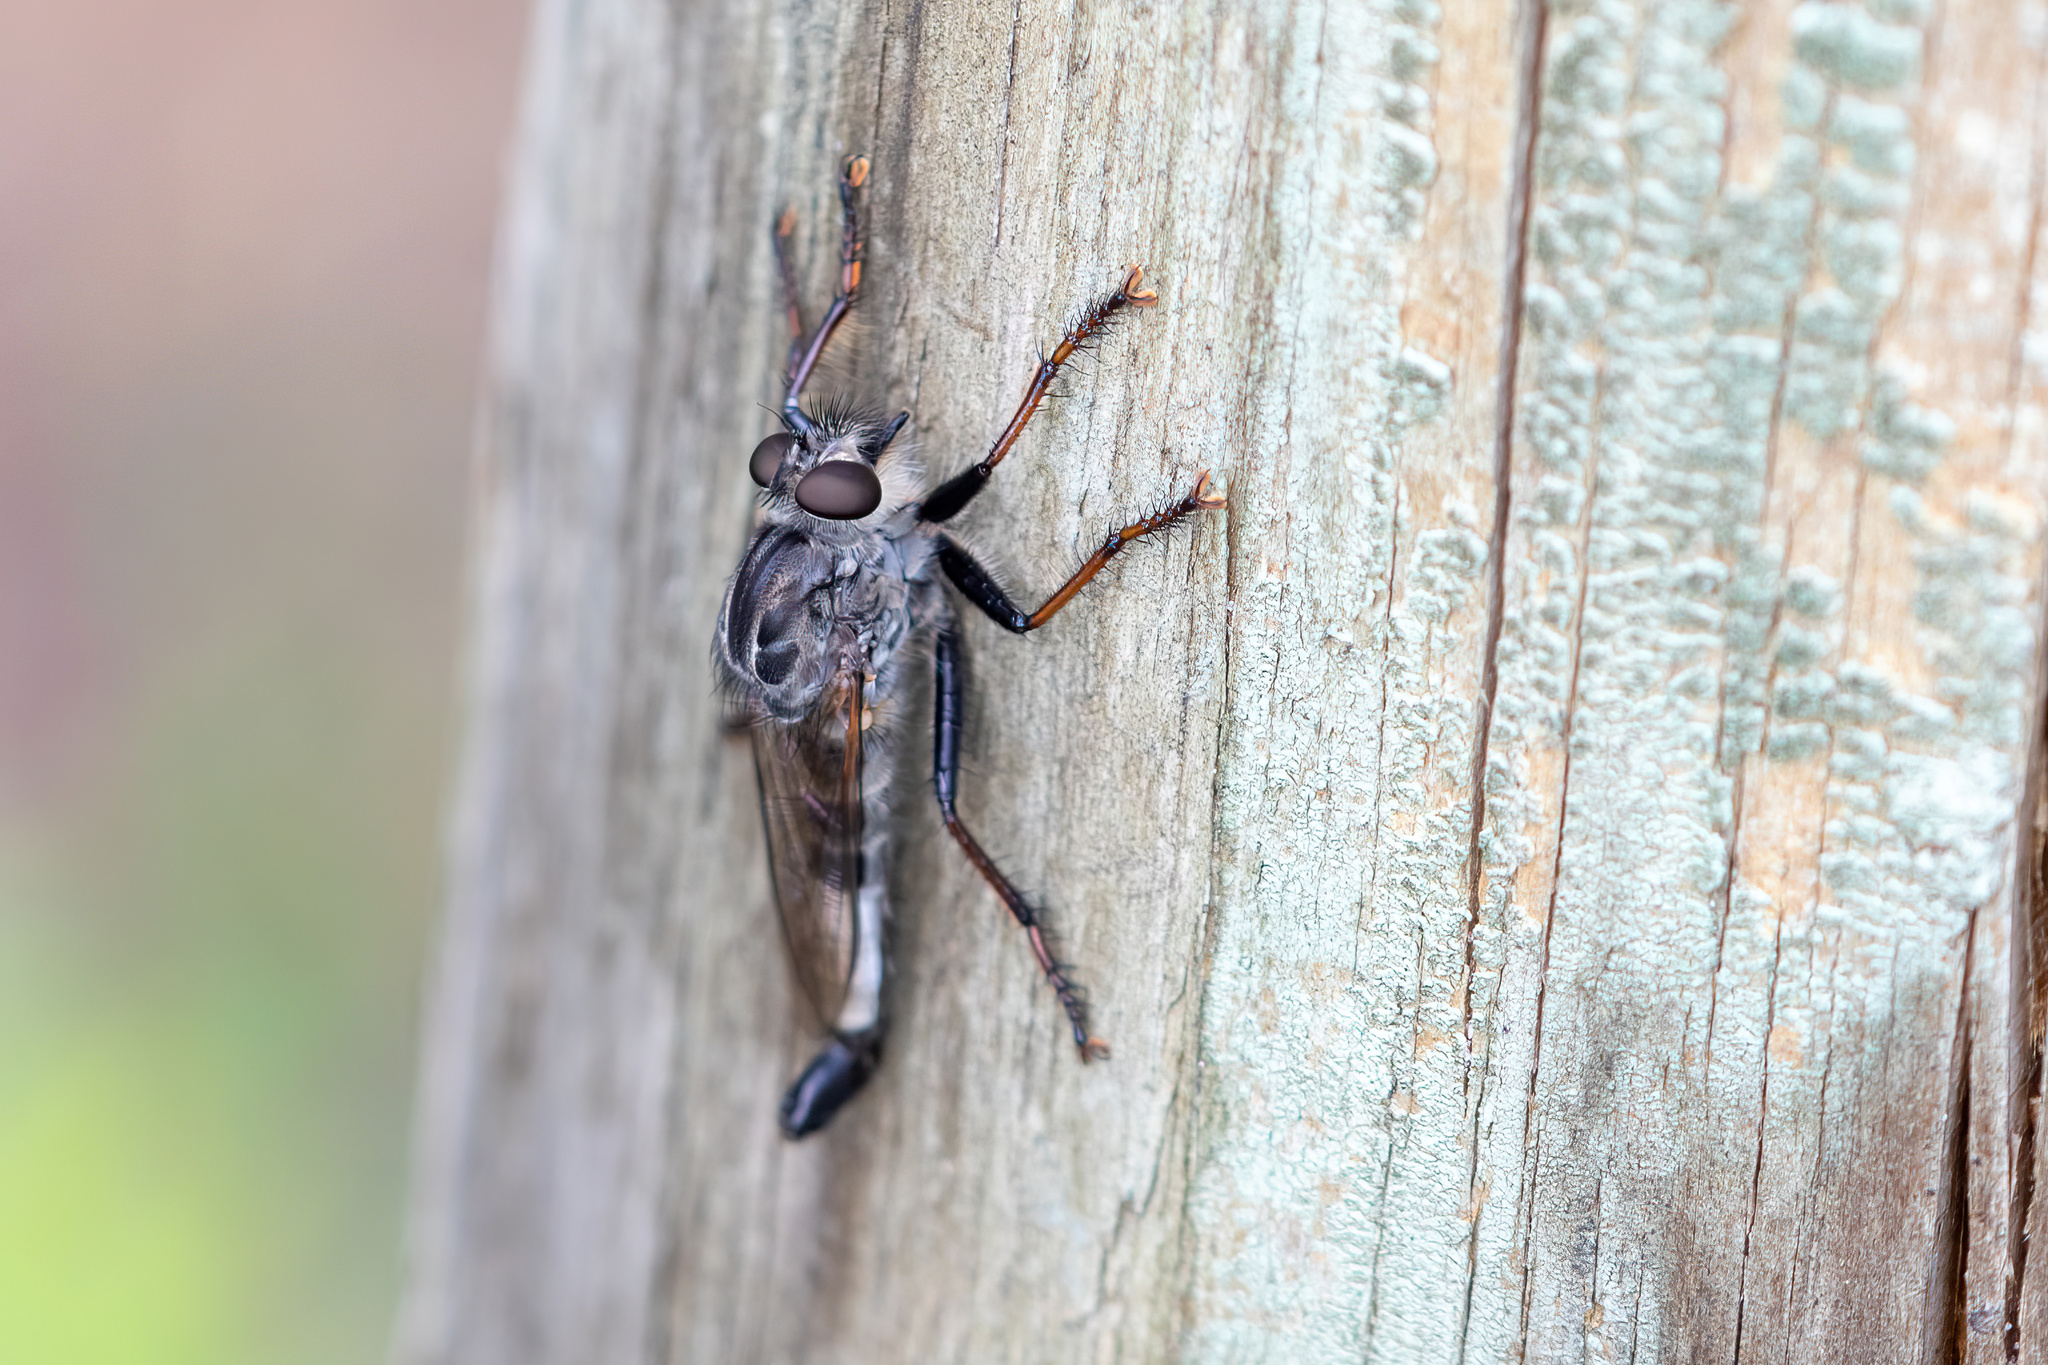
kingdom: Animalia
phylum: Arthropoda
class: Insecta
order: Diptera
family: Asilidae
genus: Efferia
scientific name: Efferia femorata
